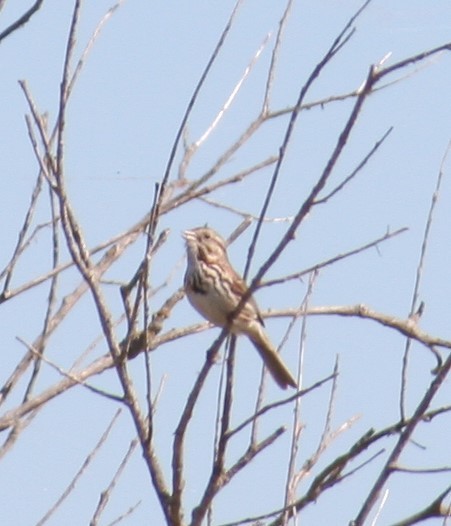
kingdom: Animalia
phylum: Chordata
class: Aves
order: Passeriformes
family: Passerellidae
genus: Melospiza
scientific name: Melospiza melodia
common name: Song sparrow
